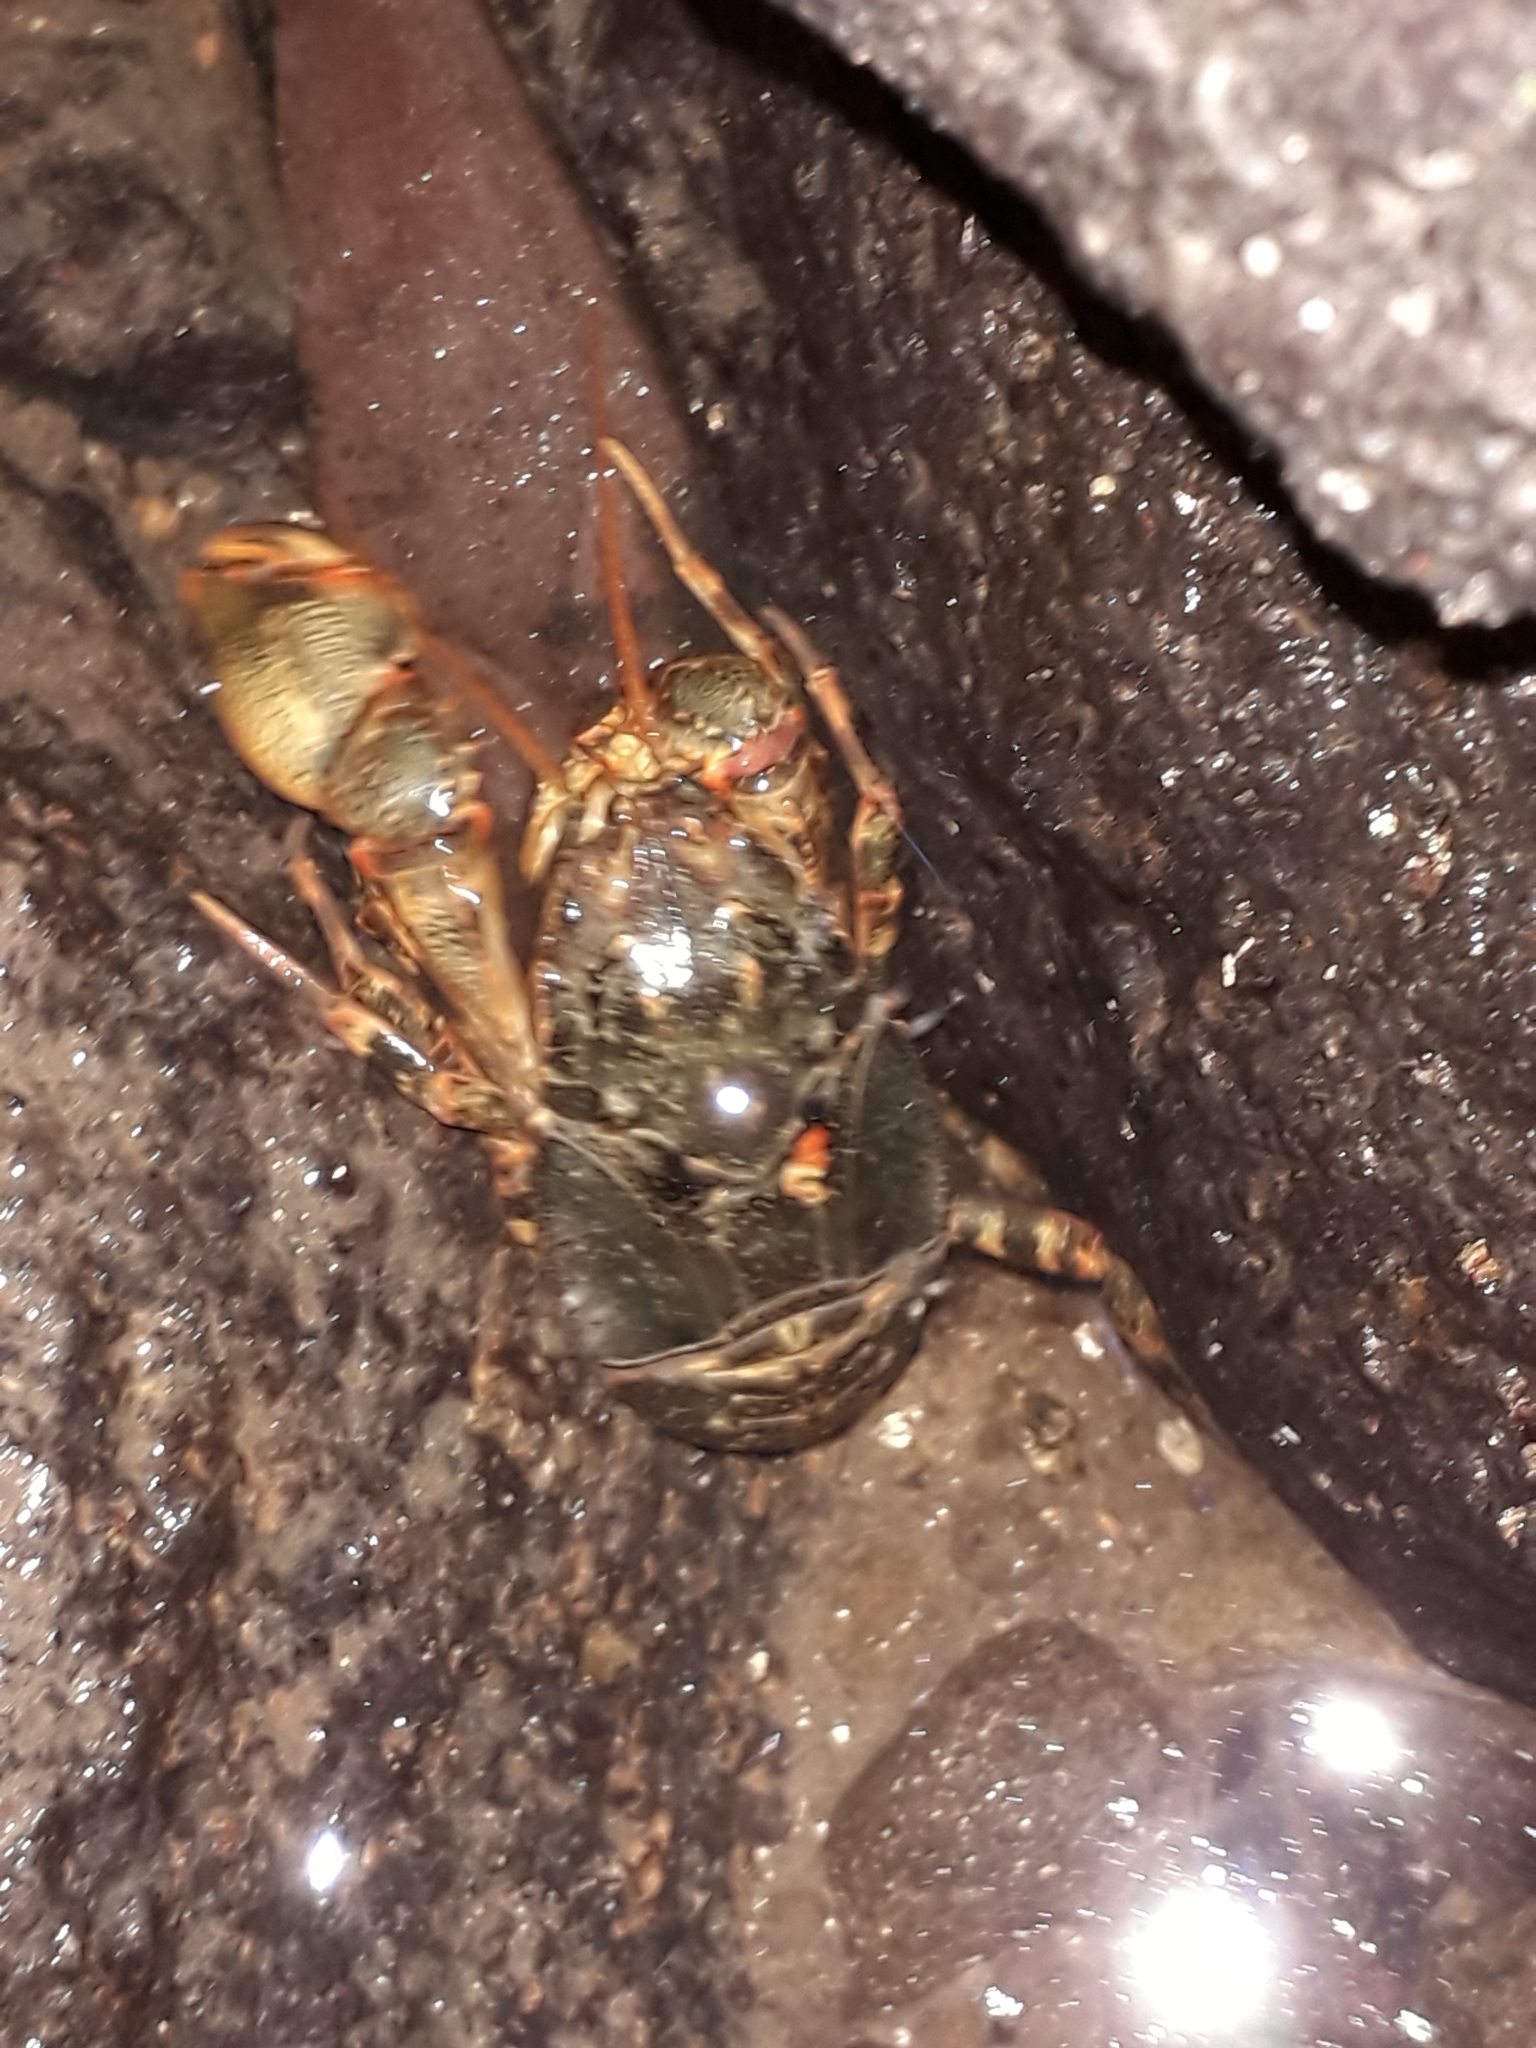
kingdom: Animalia
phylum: Arthropoda
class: Malacostraca
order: Decapoda
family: Aeglidae
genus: Aegla
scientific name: Aegla concepcionensis
